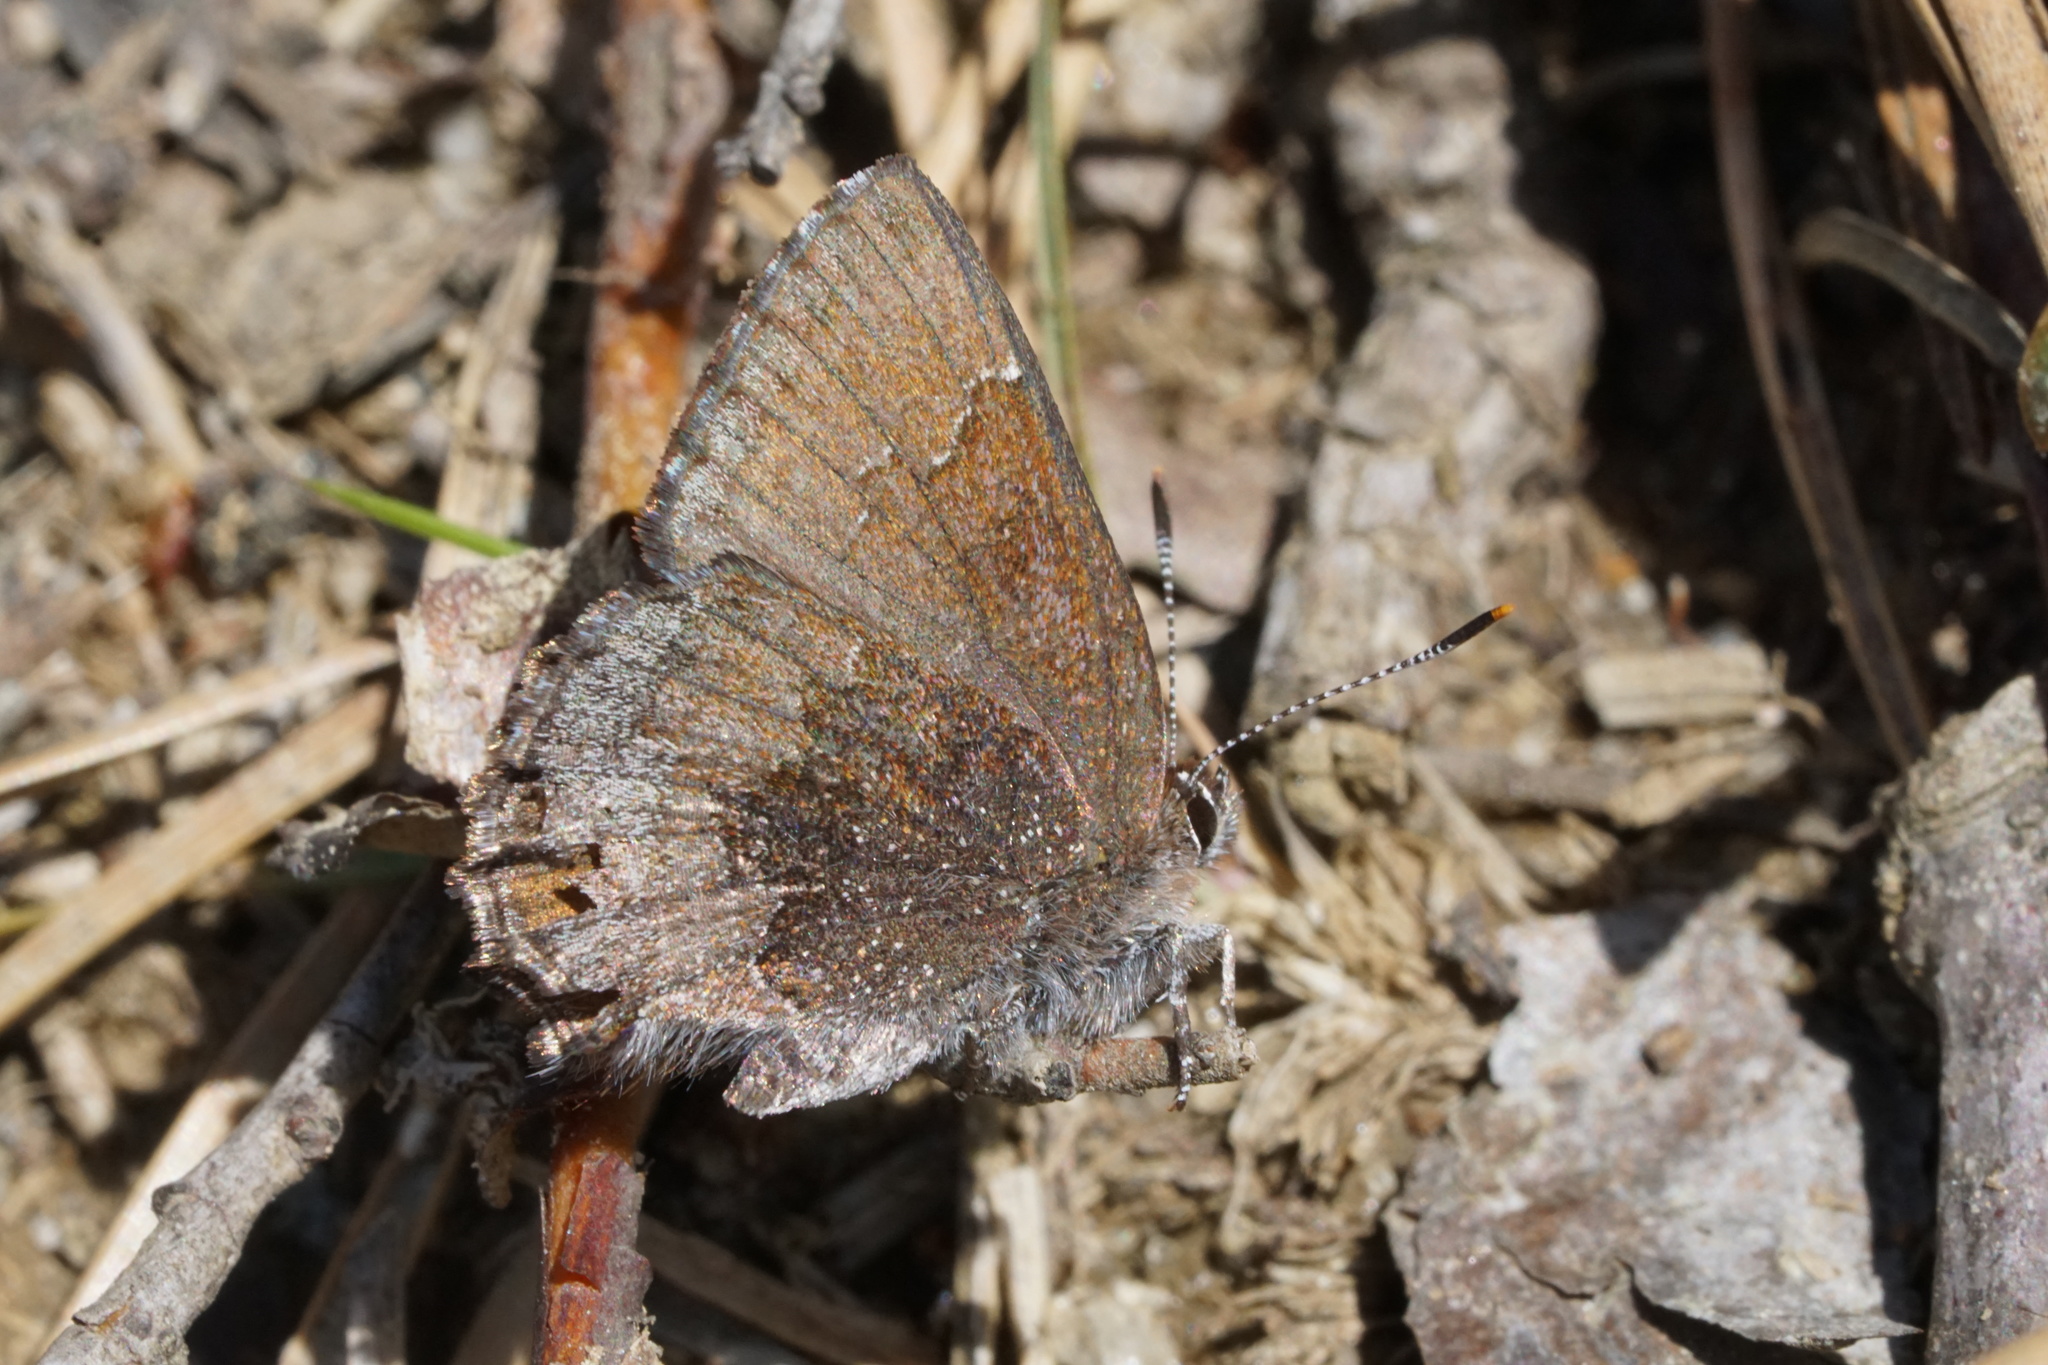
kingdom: Animalia
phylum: Arthropoda
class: Insecta
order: Lepidoptera
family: Lycaenidae
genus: Callophrys
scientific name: Callophrys polios
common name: Hoary elfin
